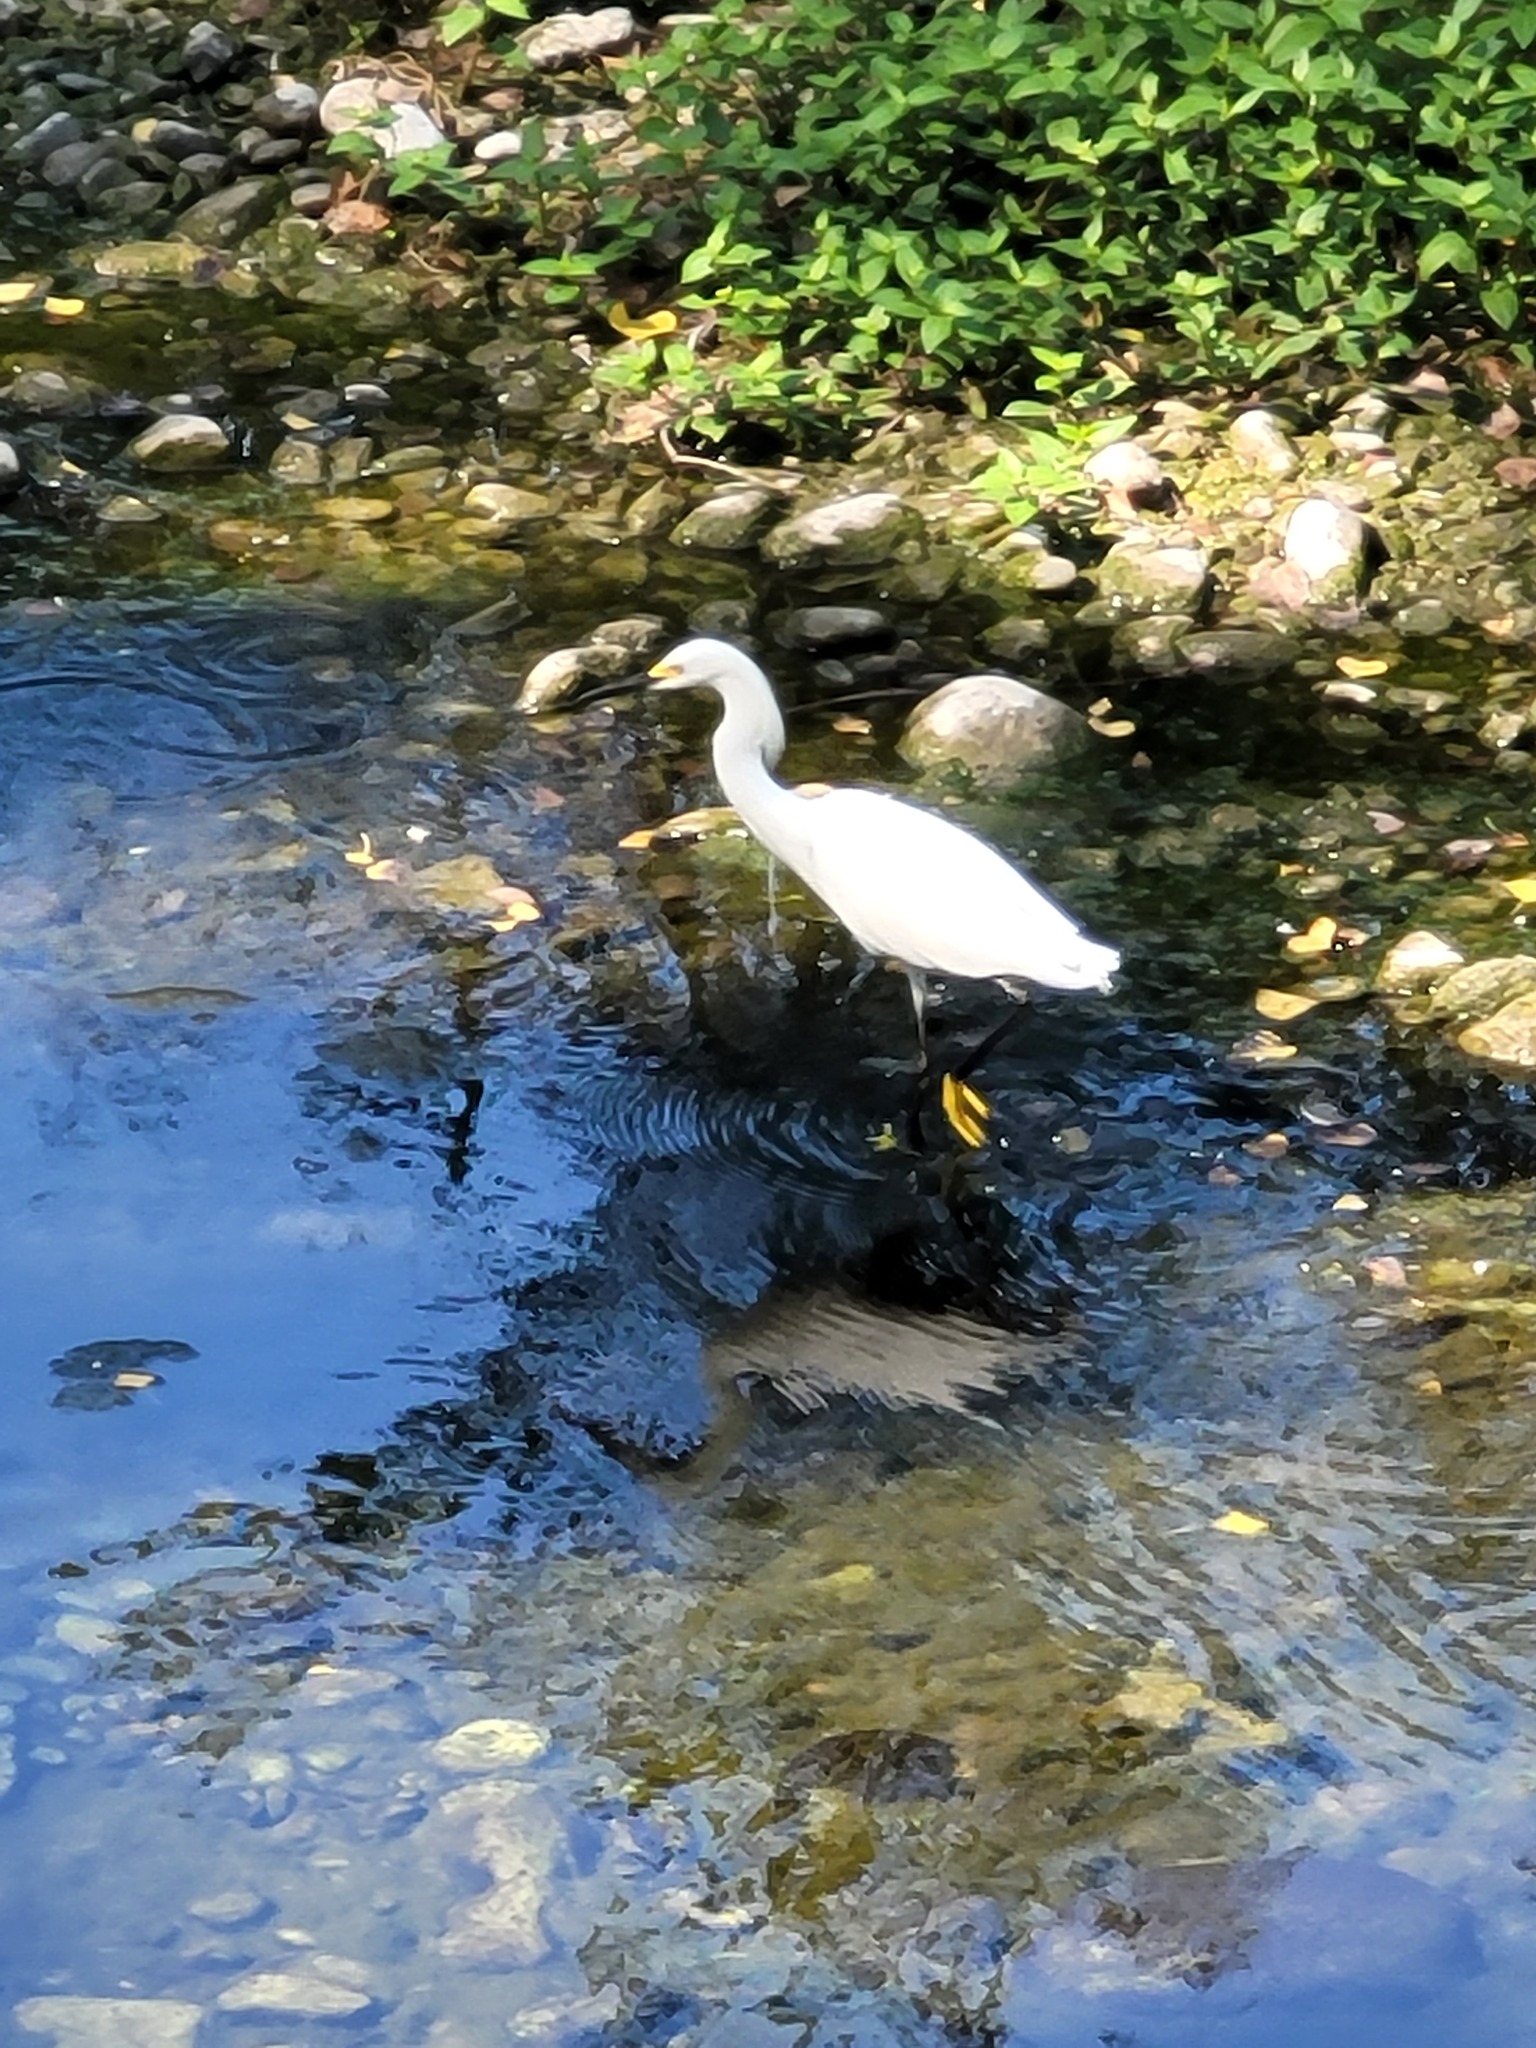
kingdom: Animalia
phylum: Chordata
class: Aves
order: Pelecaniformes
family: Ardeidae
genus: Egretta
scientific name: Egretta thula
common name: Snowy egret
